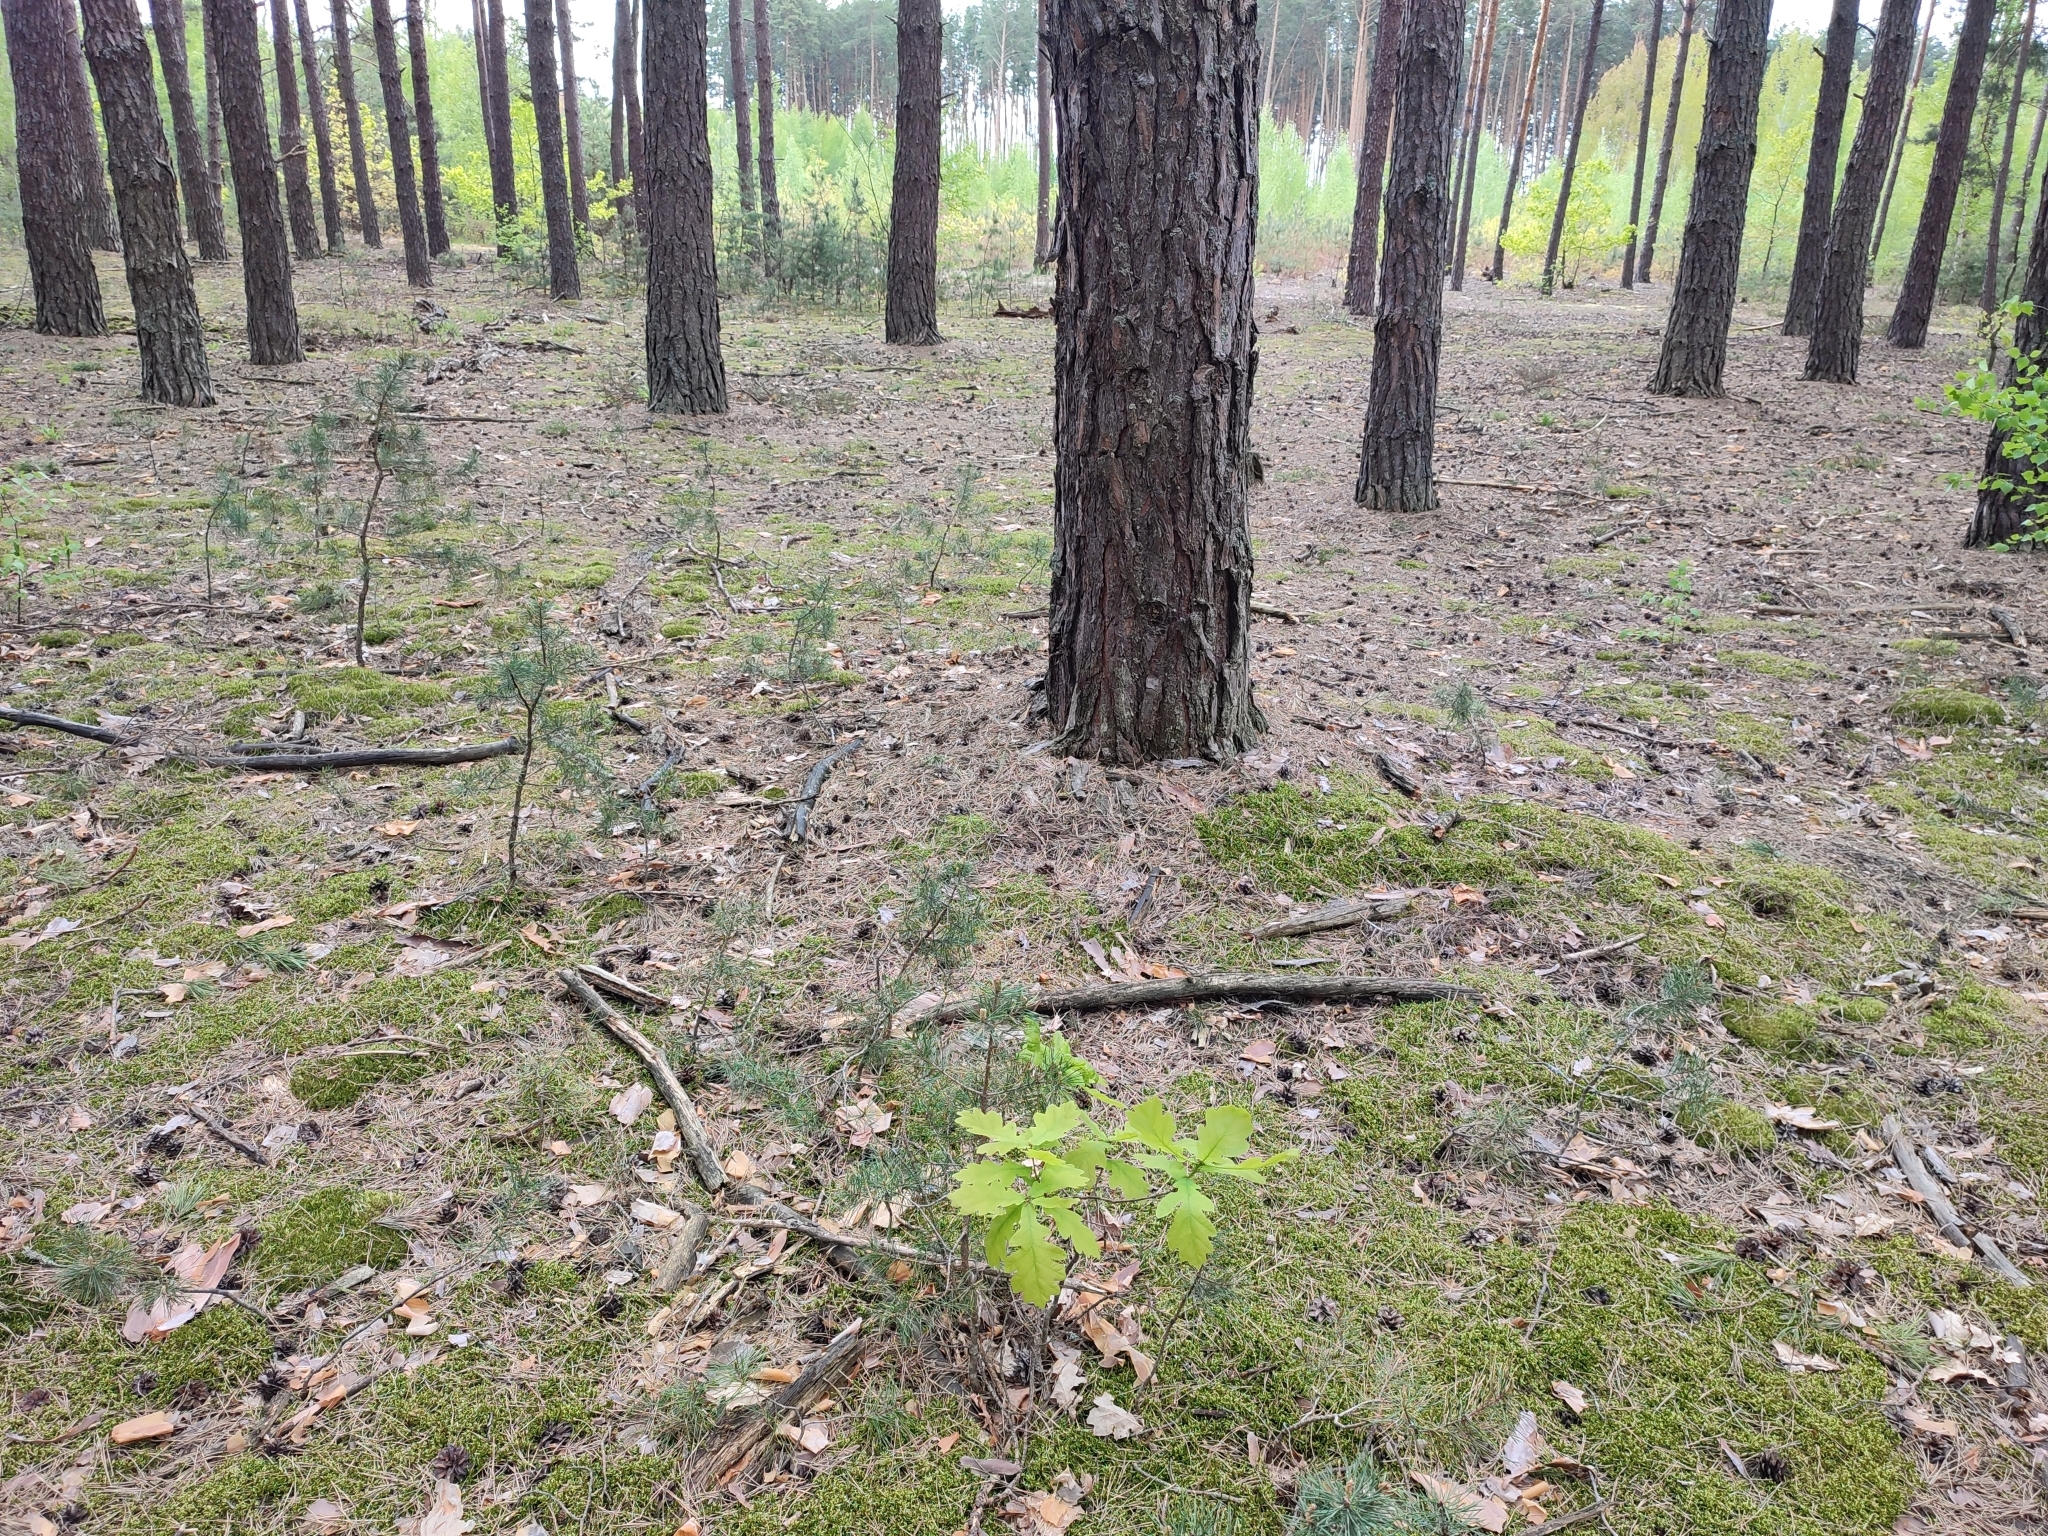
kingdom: Plantae
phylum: Tracheophyta
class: Magnoliopsida
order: Fagales
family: Fagaceae
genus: Quercus
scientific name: Quercus robur
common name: Pedunculate oak
